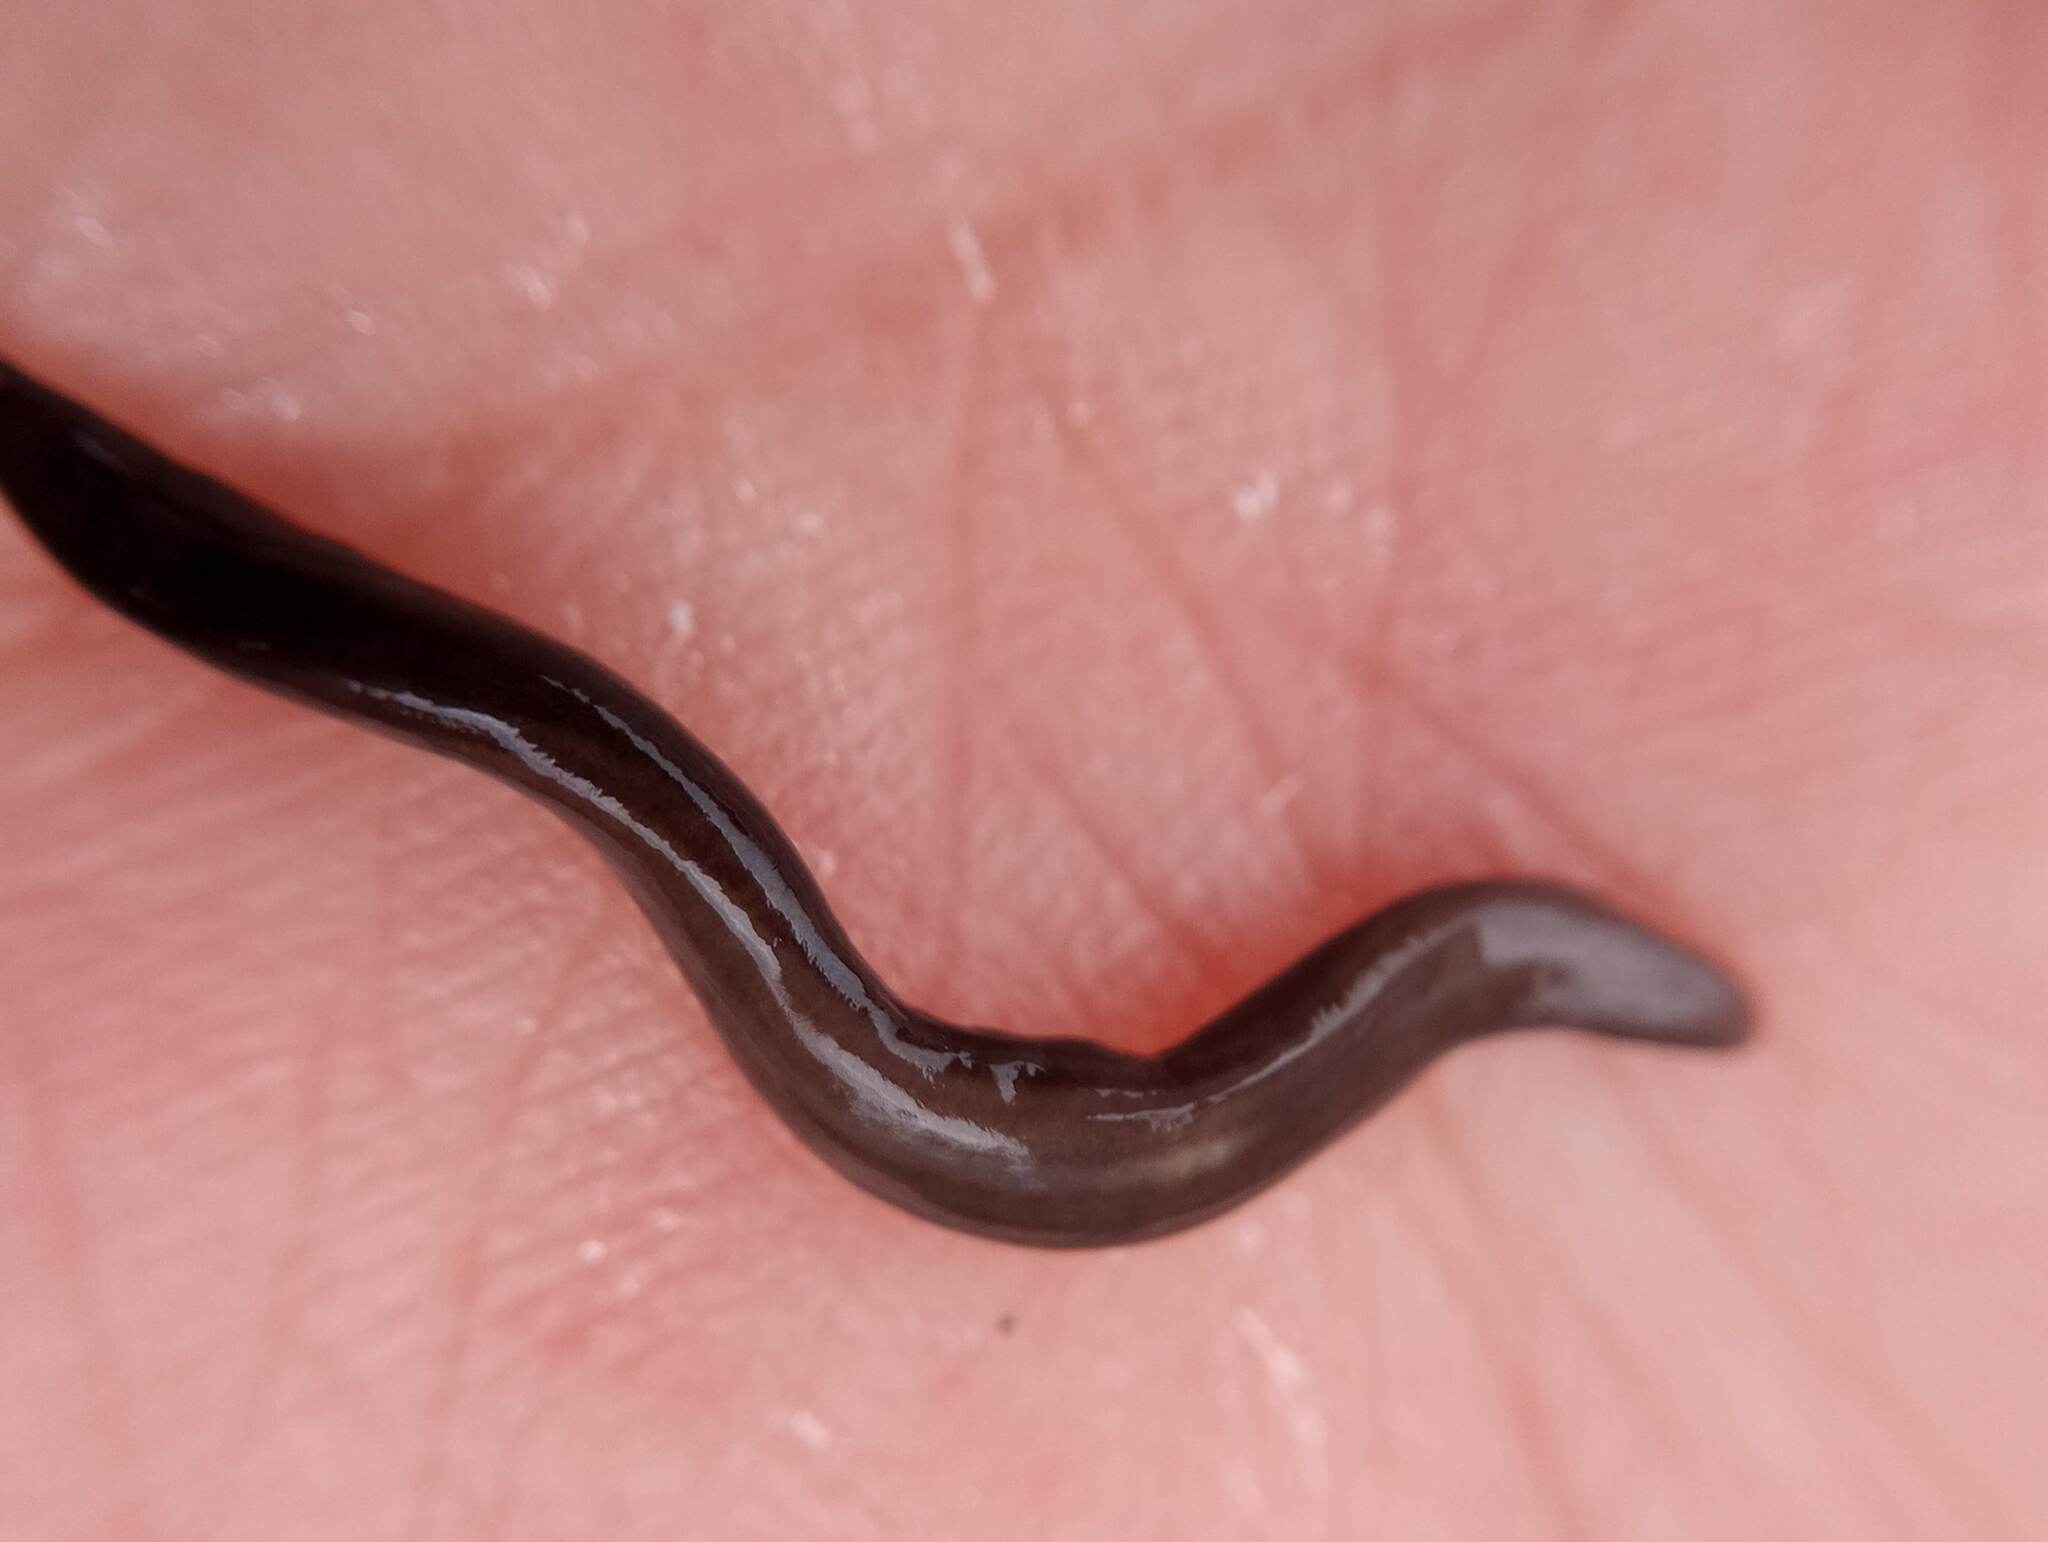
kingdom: Animalia
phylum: Platyhelminthes
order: Tricladida
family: Geoplanidae
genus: Parakontikia
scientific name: Parakontikia ventrolineata
